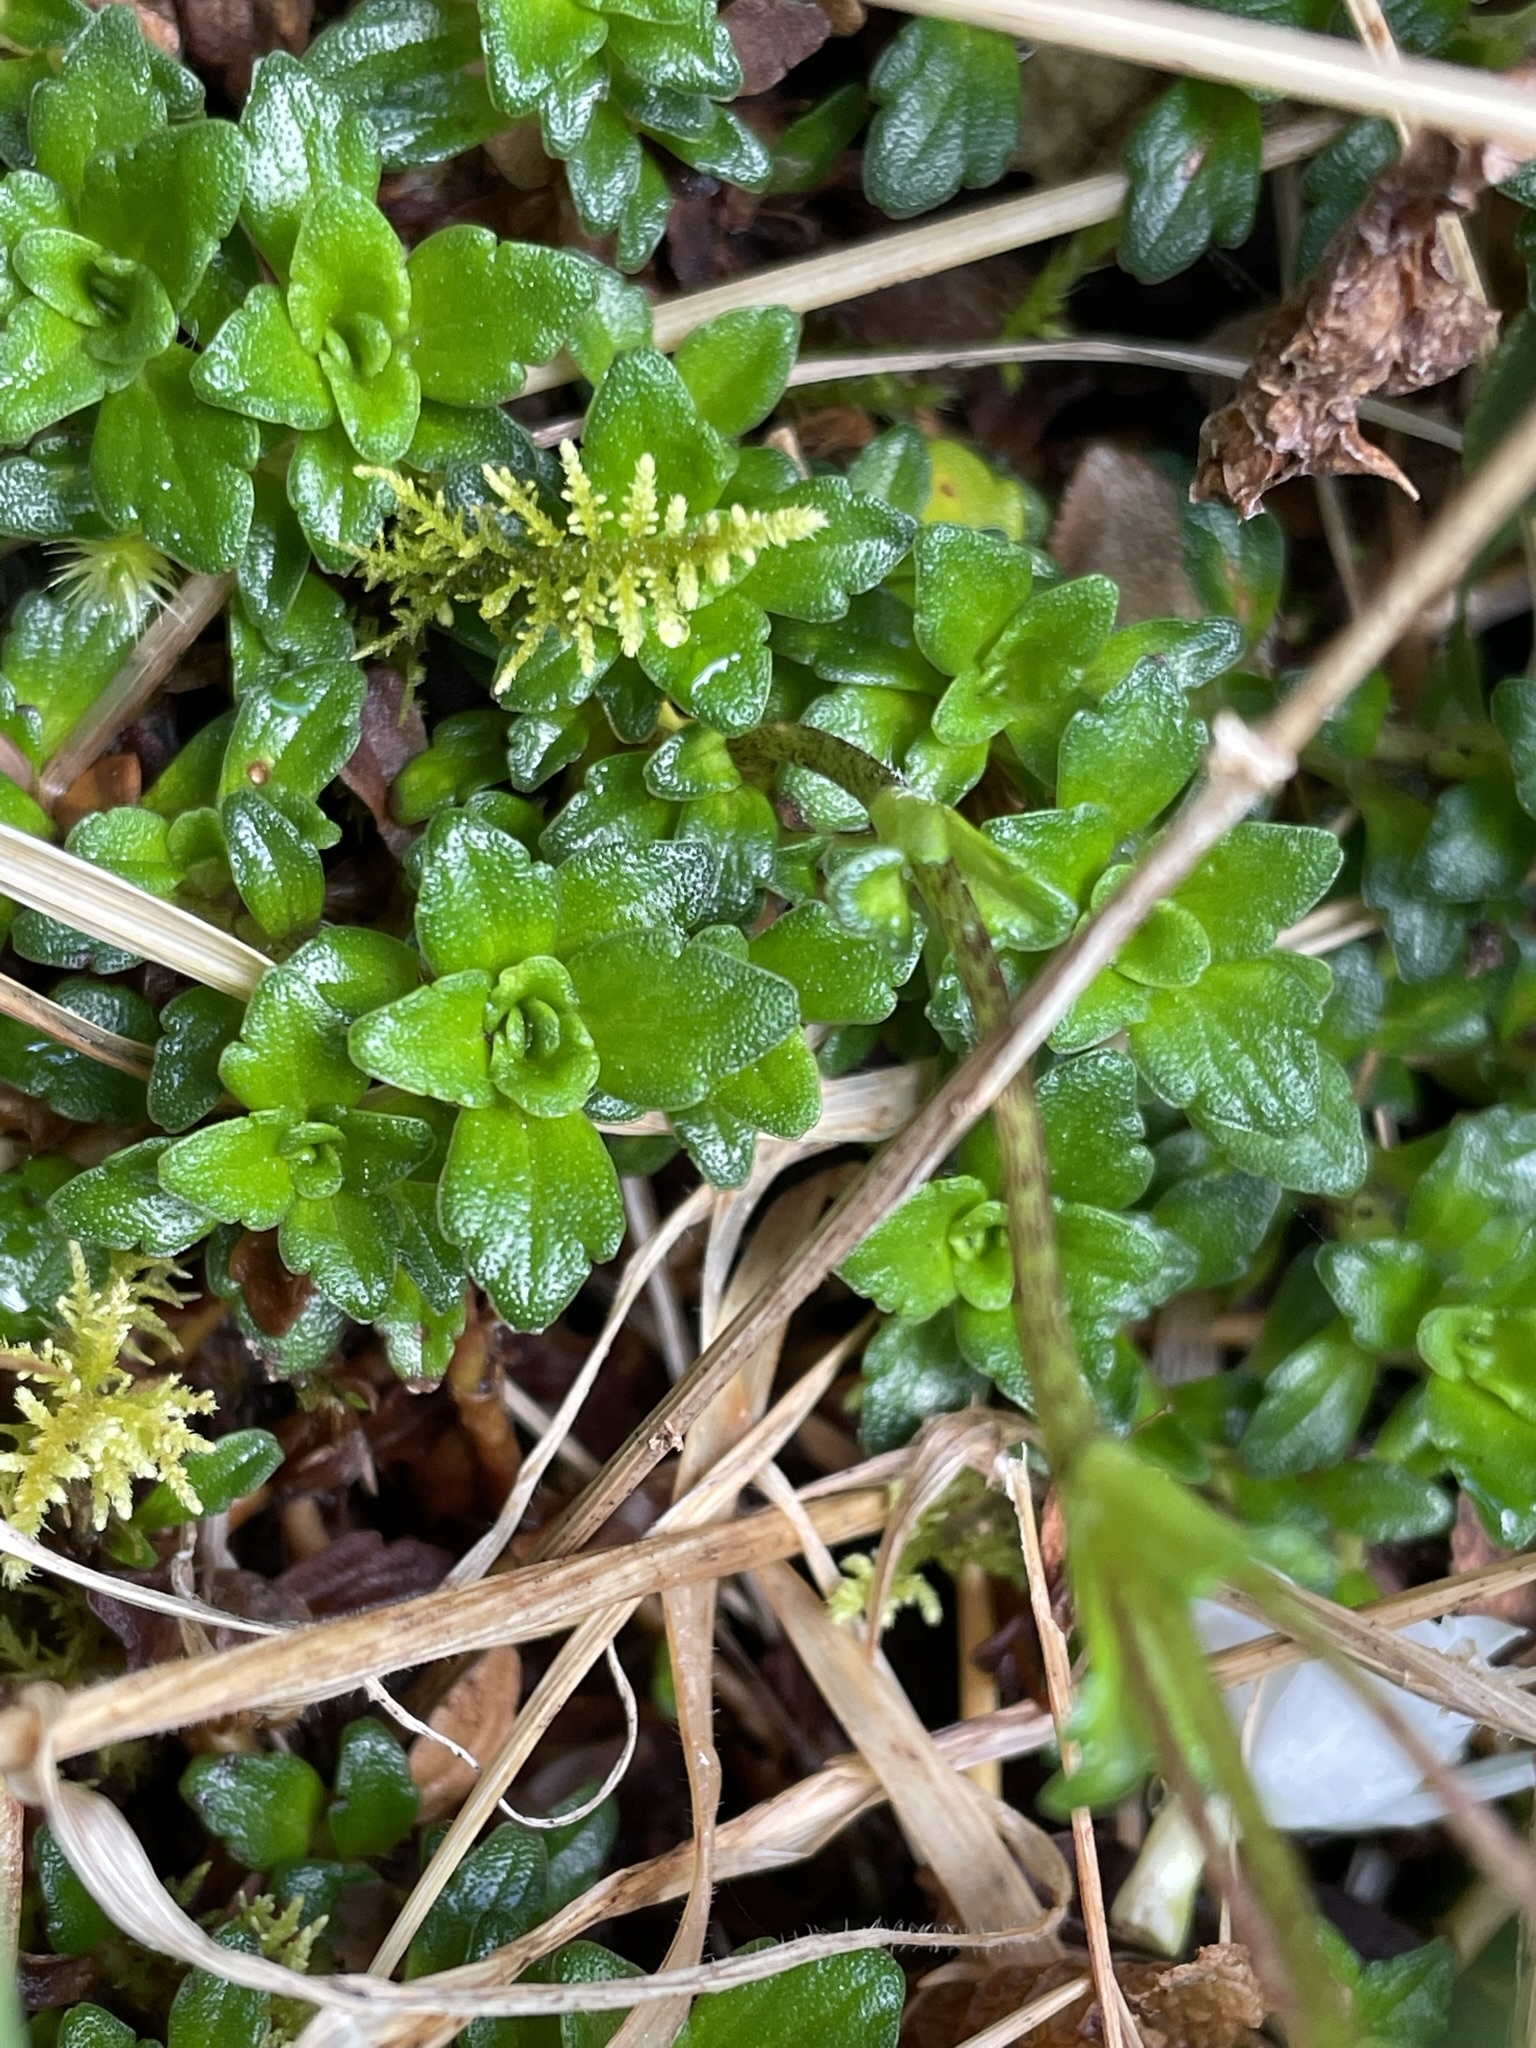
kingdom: Plantae
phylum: Tracheophyta
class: Magnoliopsida
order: Lamiales
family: Plantaginaceae
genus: Ourisia
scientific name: Ourisia caespitosa
